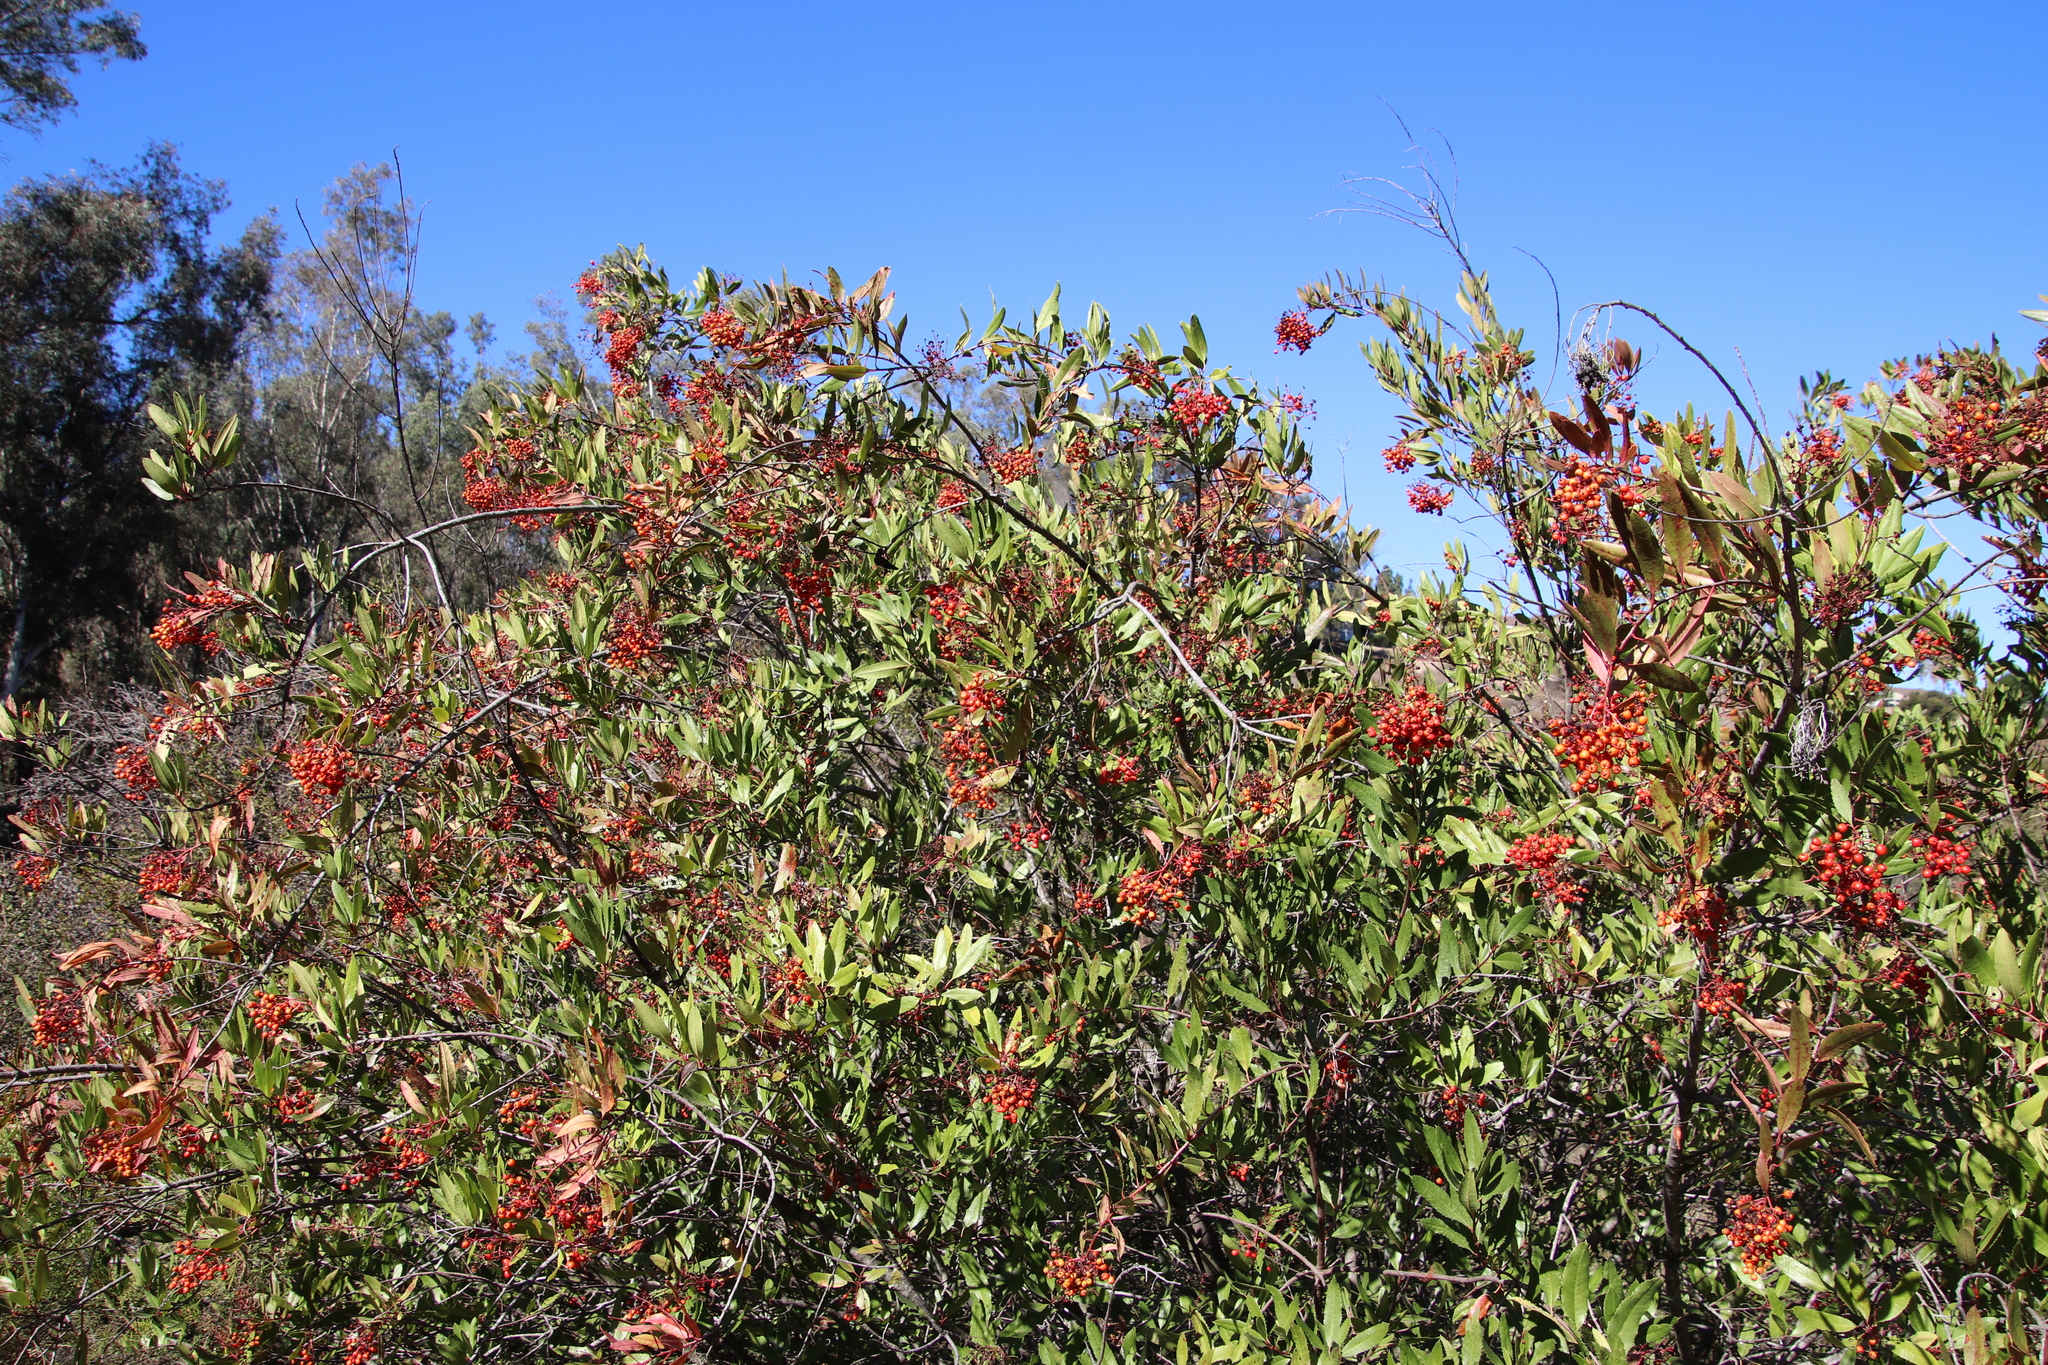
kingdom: Plantae
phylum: Tracheophyta
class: Magnoliopsida
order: Rosales
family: Rosaceae
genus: Heteromeles
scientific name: Heteromeles arbutifolia
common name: California-holly
